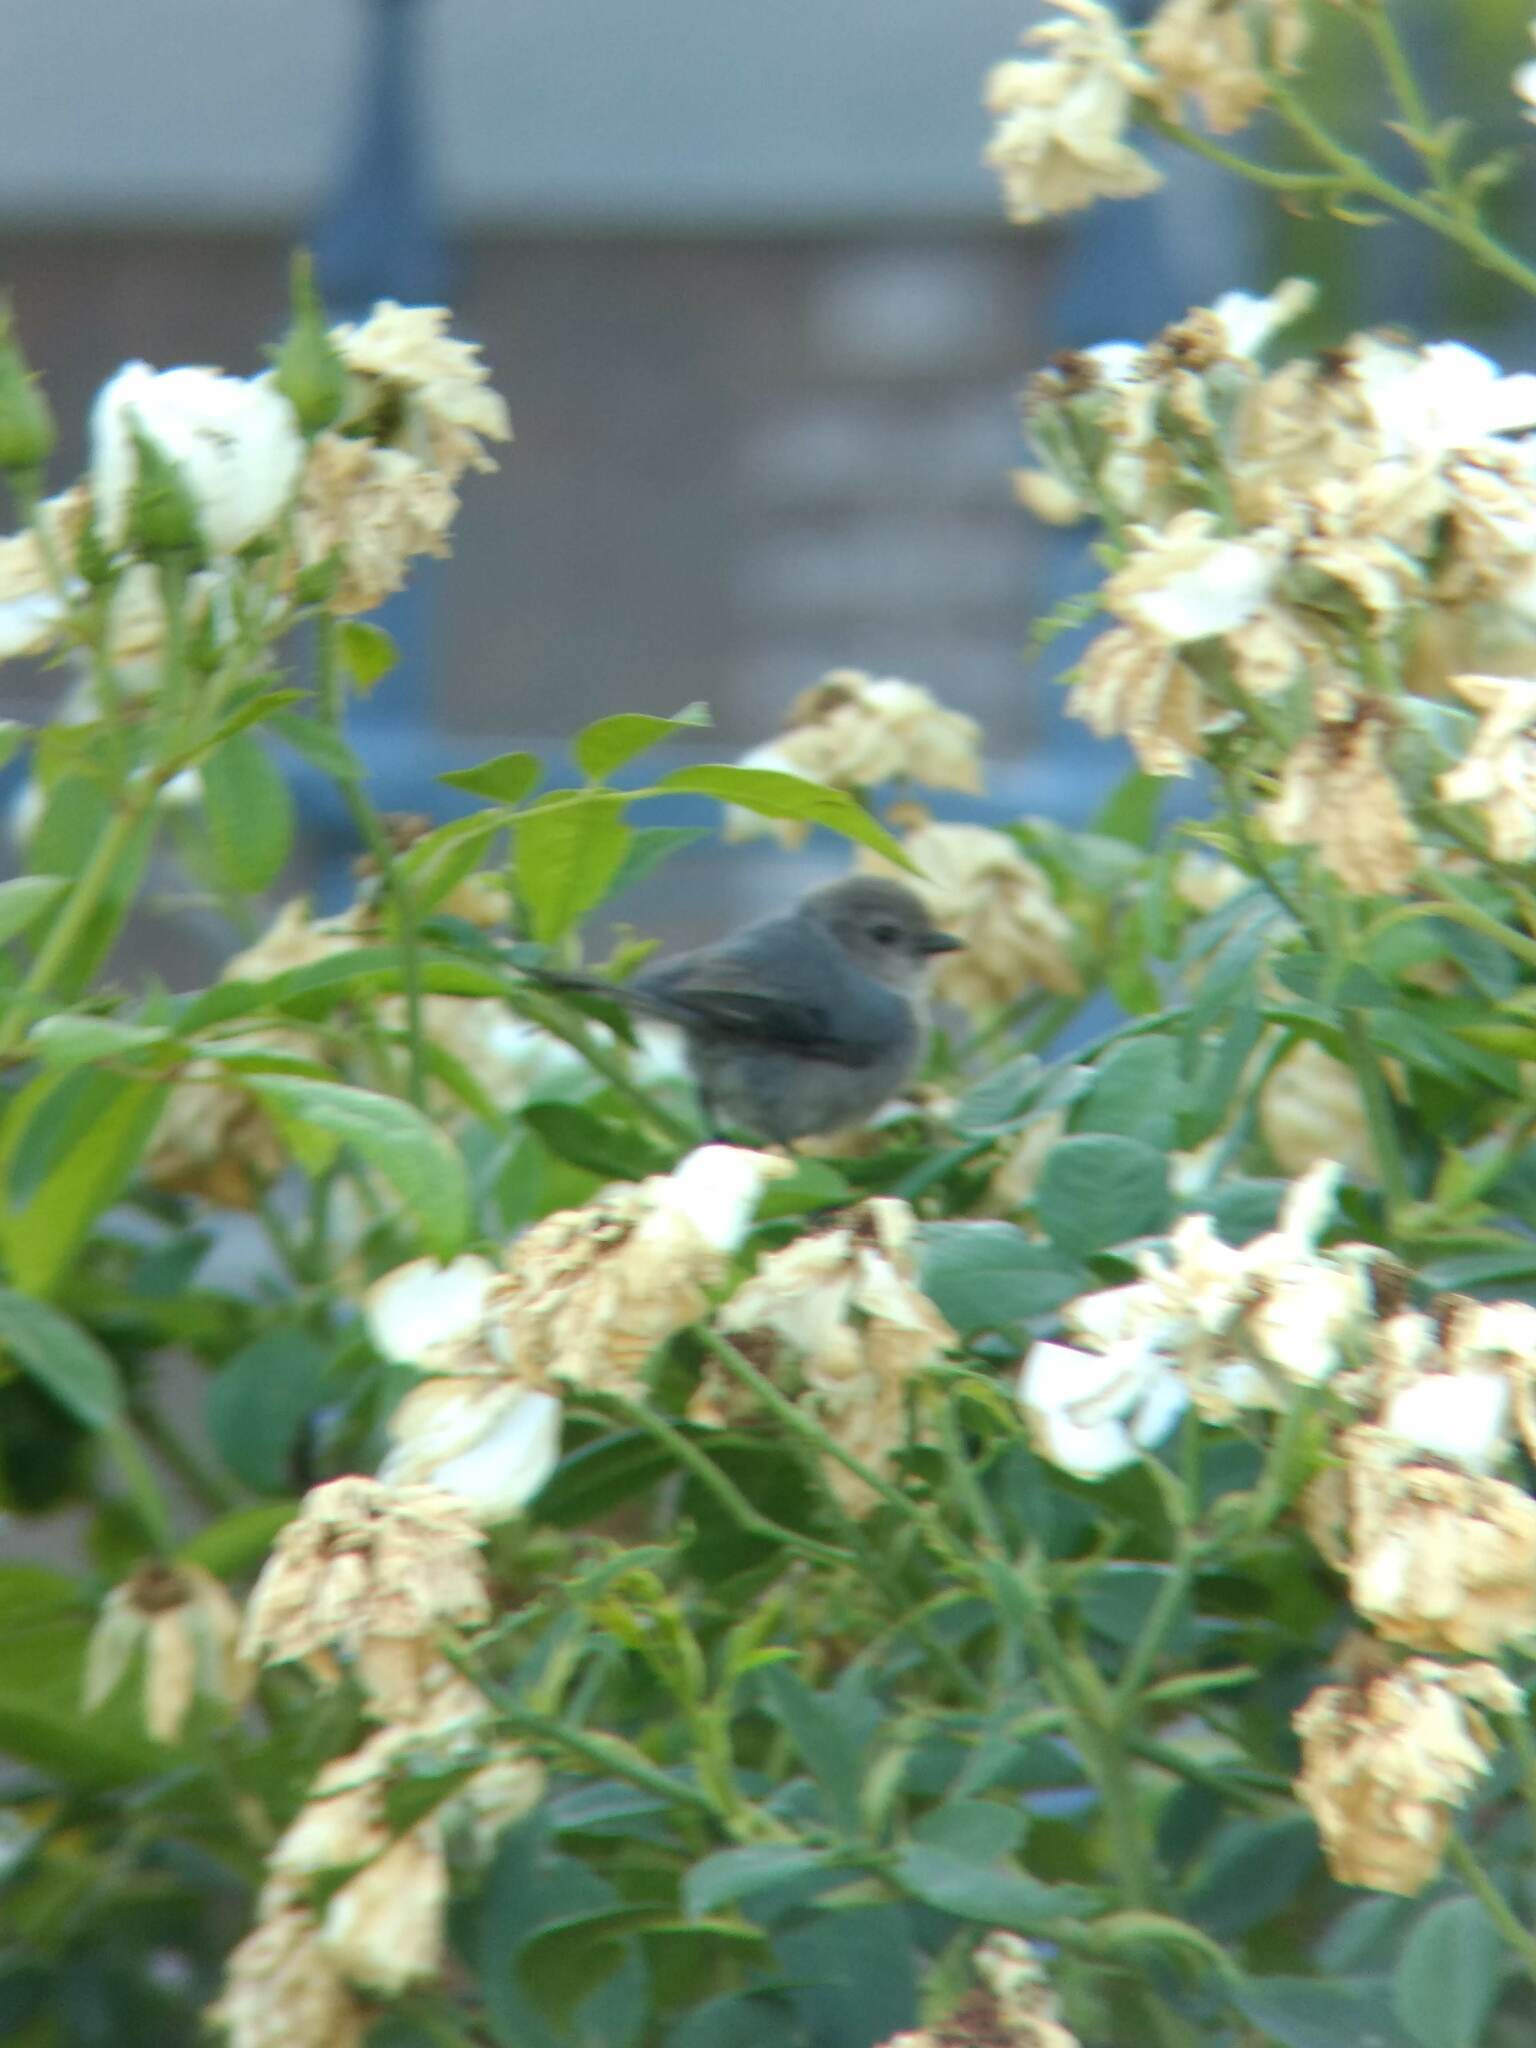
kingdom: Animalia
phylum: Chordata
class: Aves
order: Passeriformes
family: Aegithalidae
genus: Psaltriparus
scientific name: Psaltriparus minimus
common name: American bushtit
